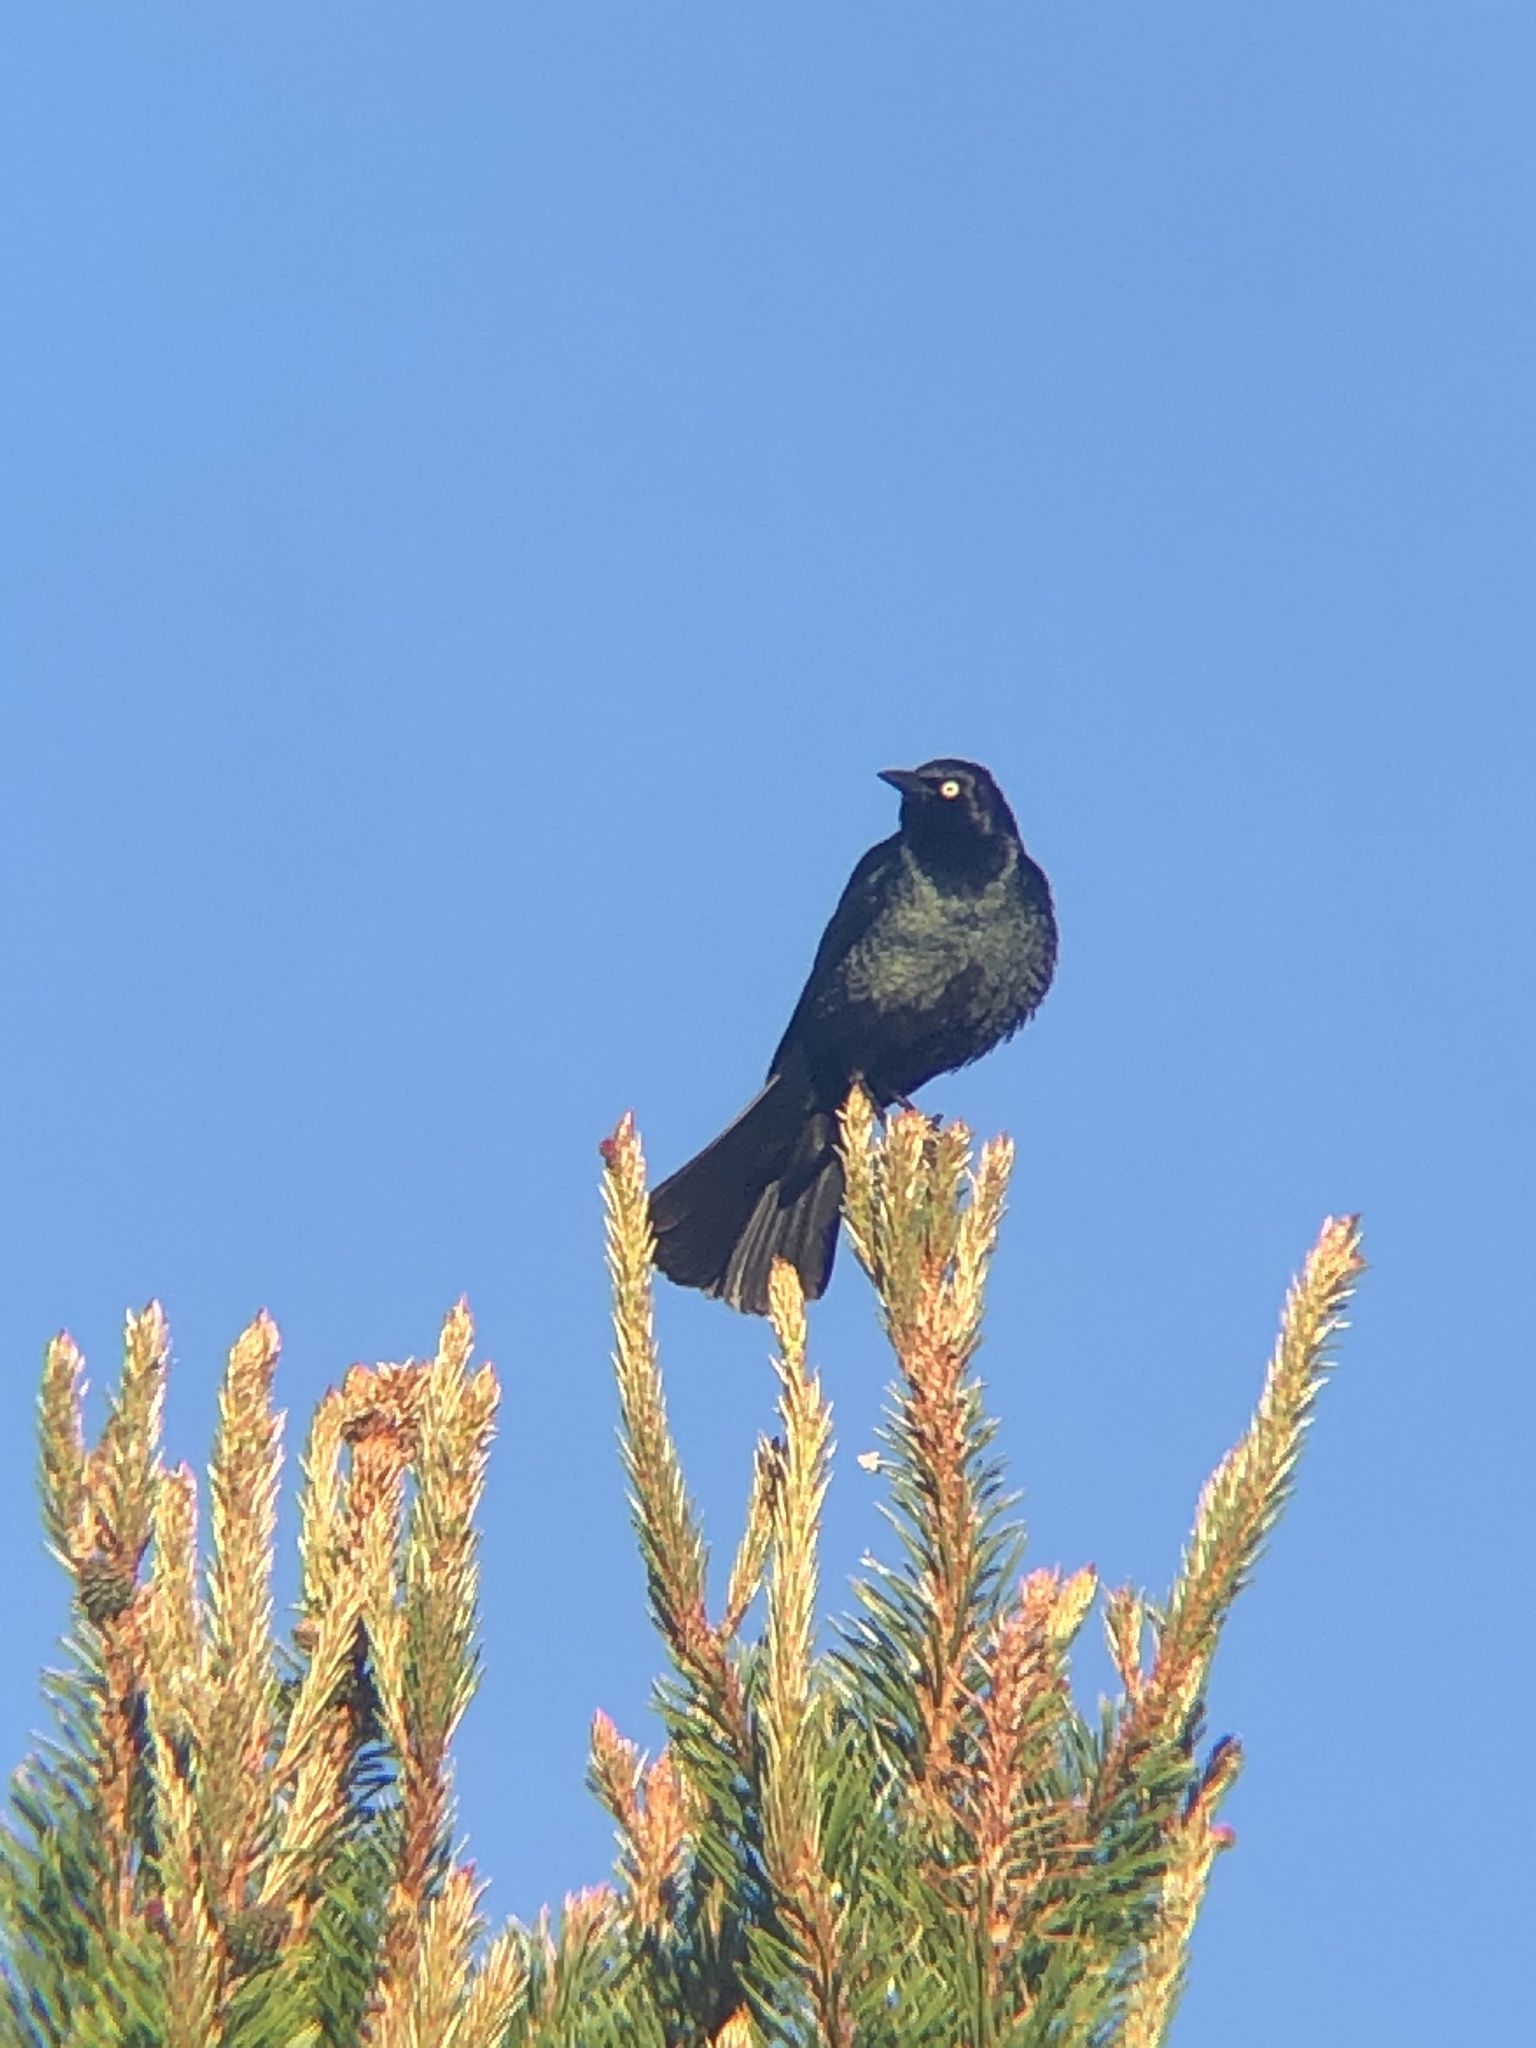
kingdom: Animalia
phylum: Chordata
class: Aves
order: Passeriformes
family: Icteridae
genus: Euphagus
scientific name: Euphagus cyanocephalus
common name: Brewer's blackbird
